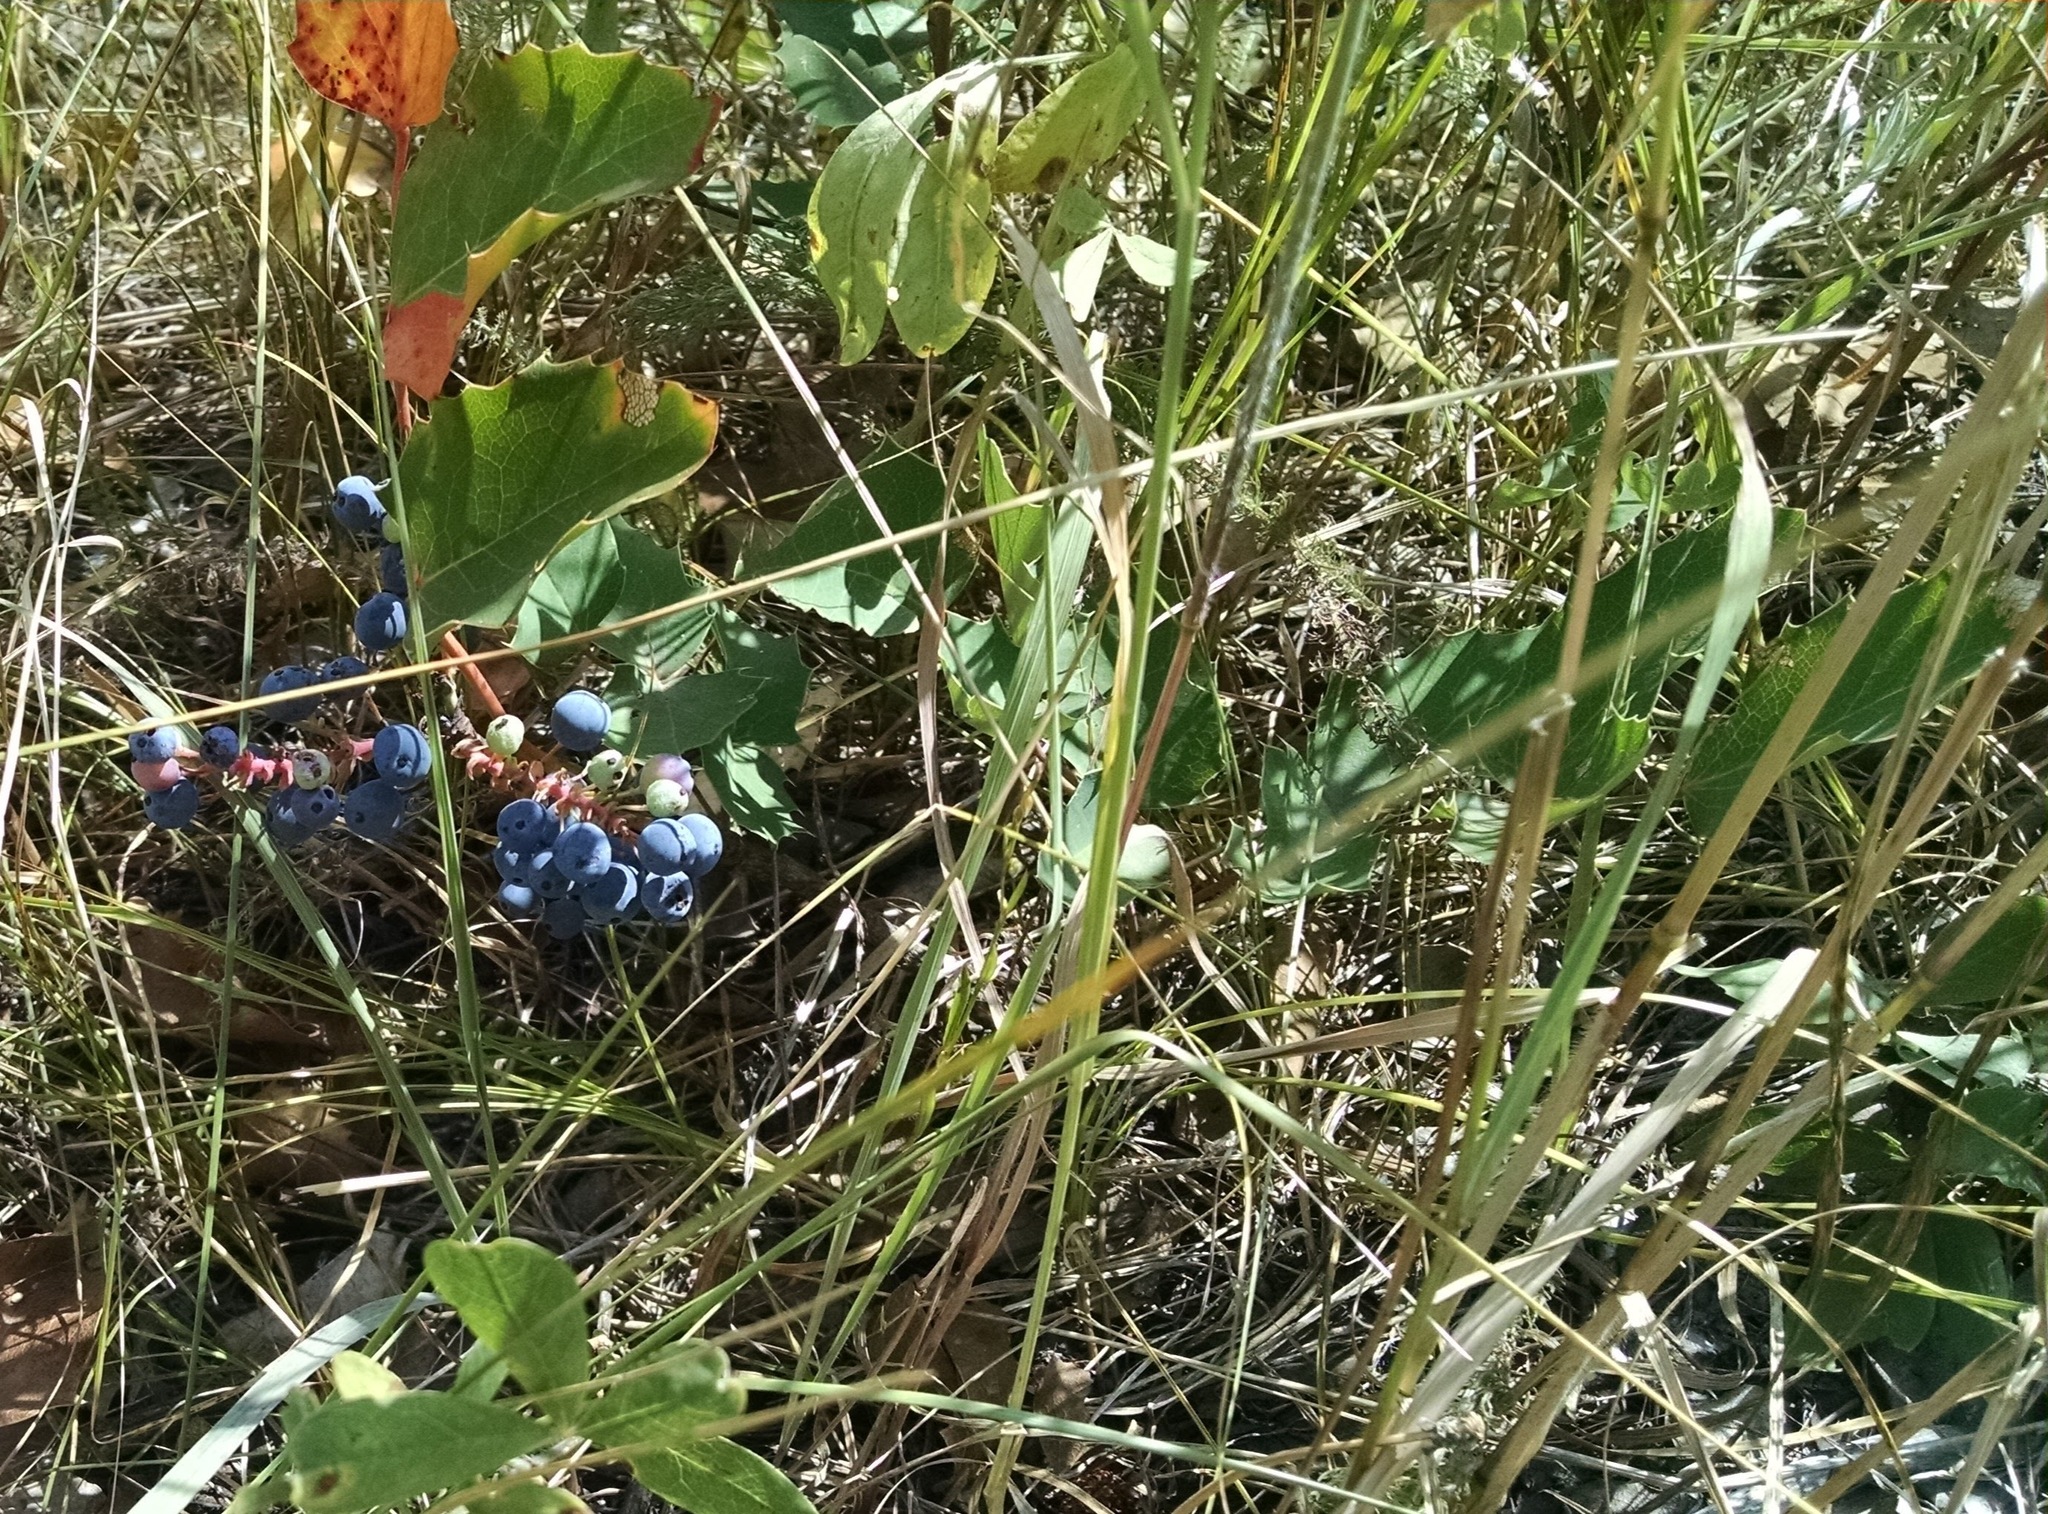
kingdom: Plantae
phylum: Tracheophyta
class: Magnoliopsida
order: Ranunculales
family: Berberidaceae
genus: Mahonia
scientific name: Mahonia repens
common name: Creeping oregon-grape
